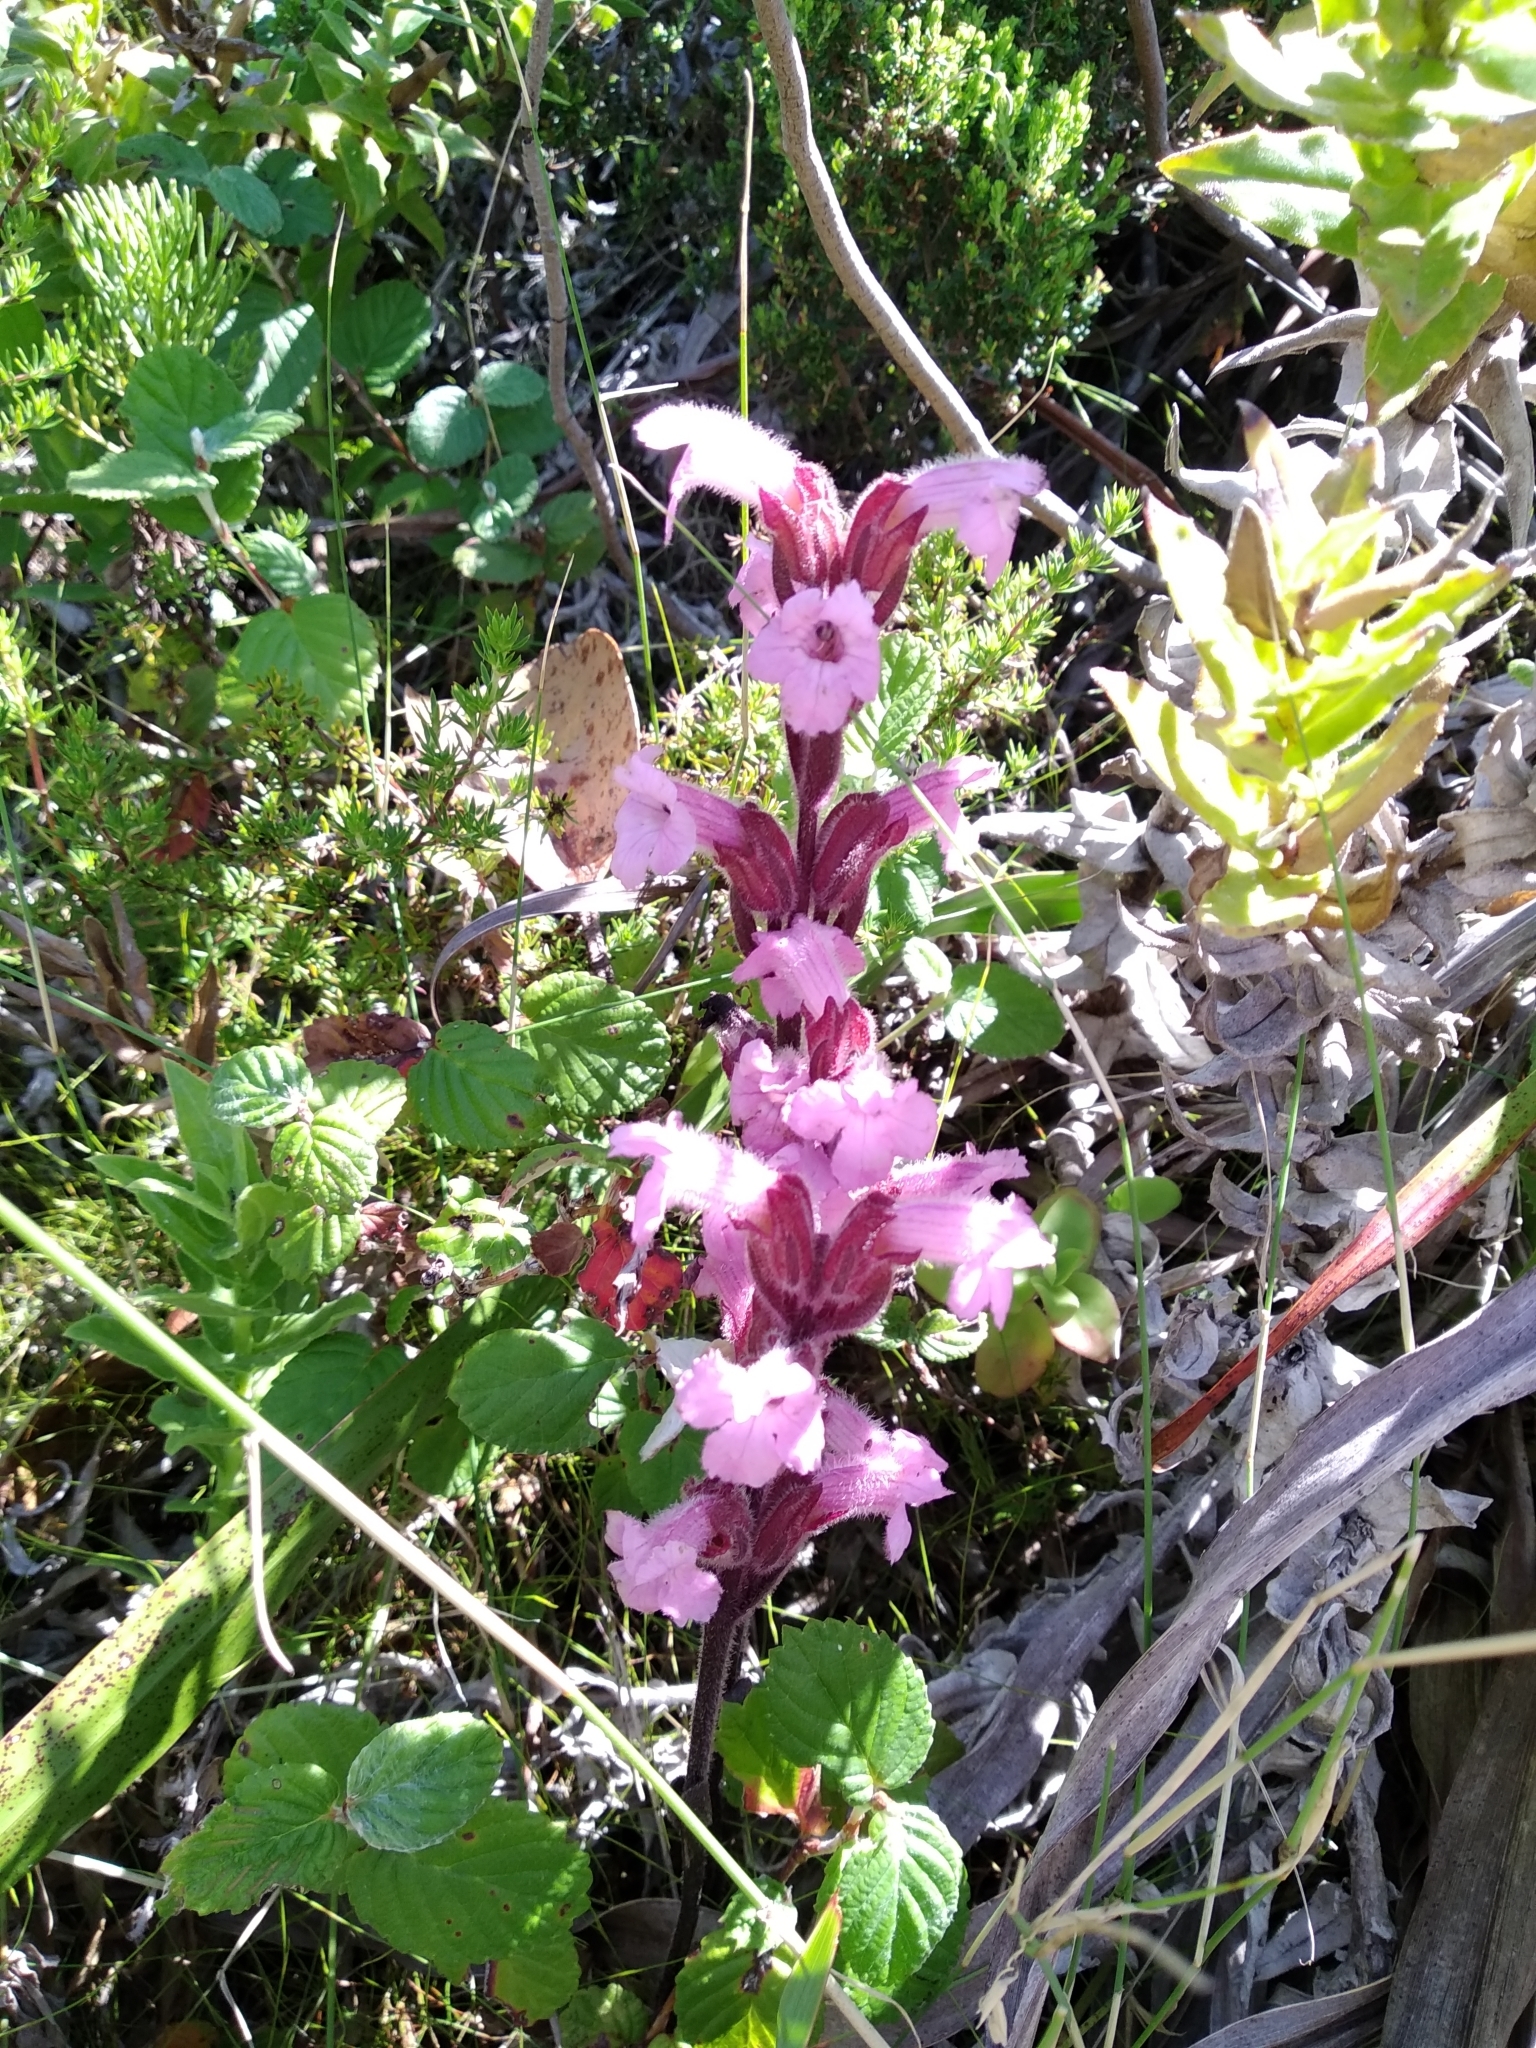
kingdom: Plantae
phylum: Tracheophyta
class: Magnoliopsida
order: Lamiales
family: Orobanchaceae
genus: Harveya
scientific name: Harveya pauciflora
